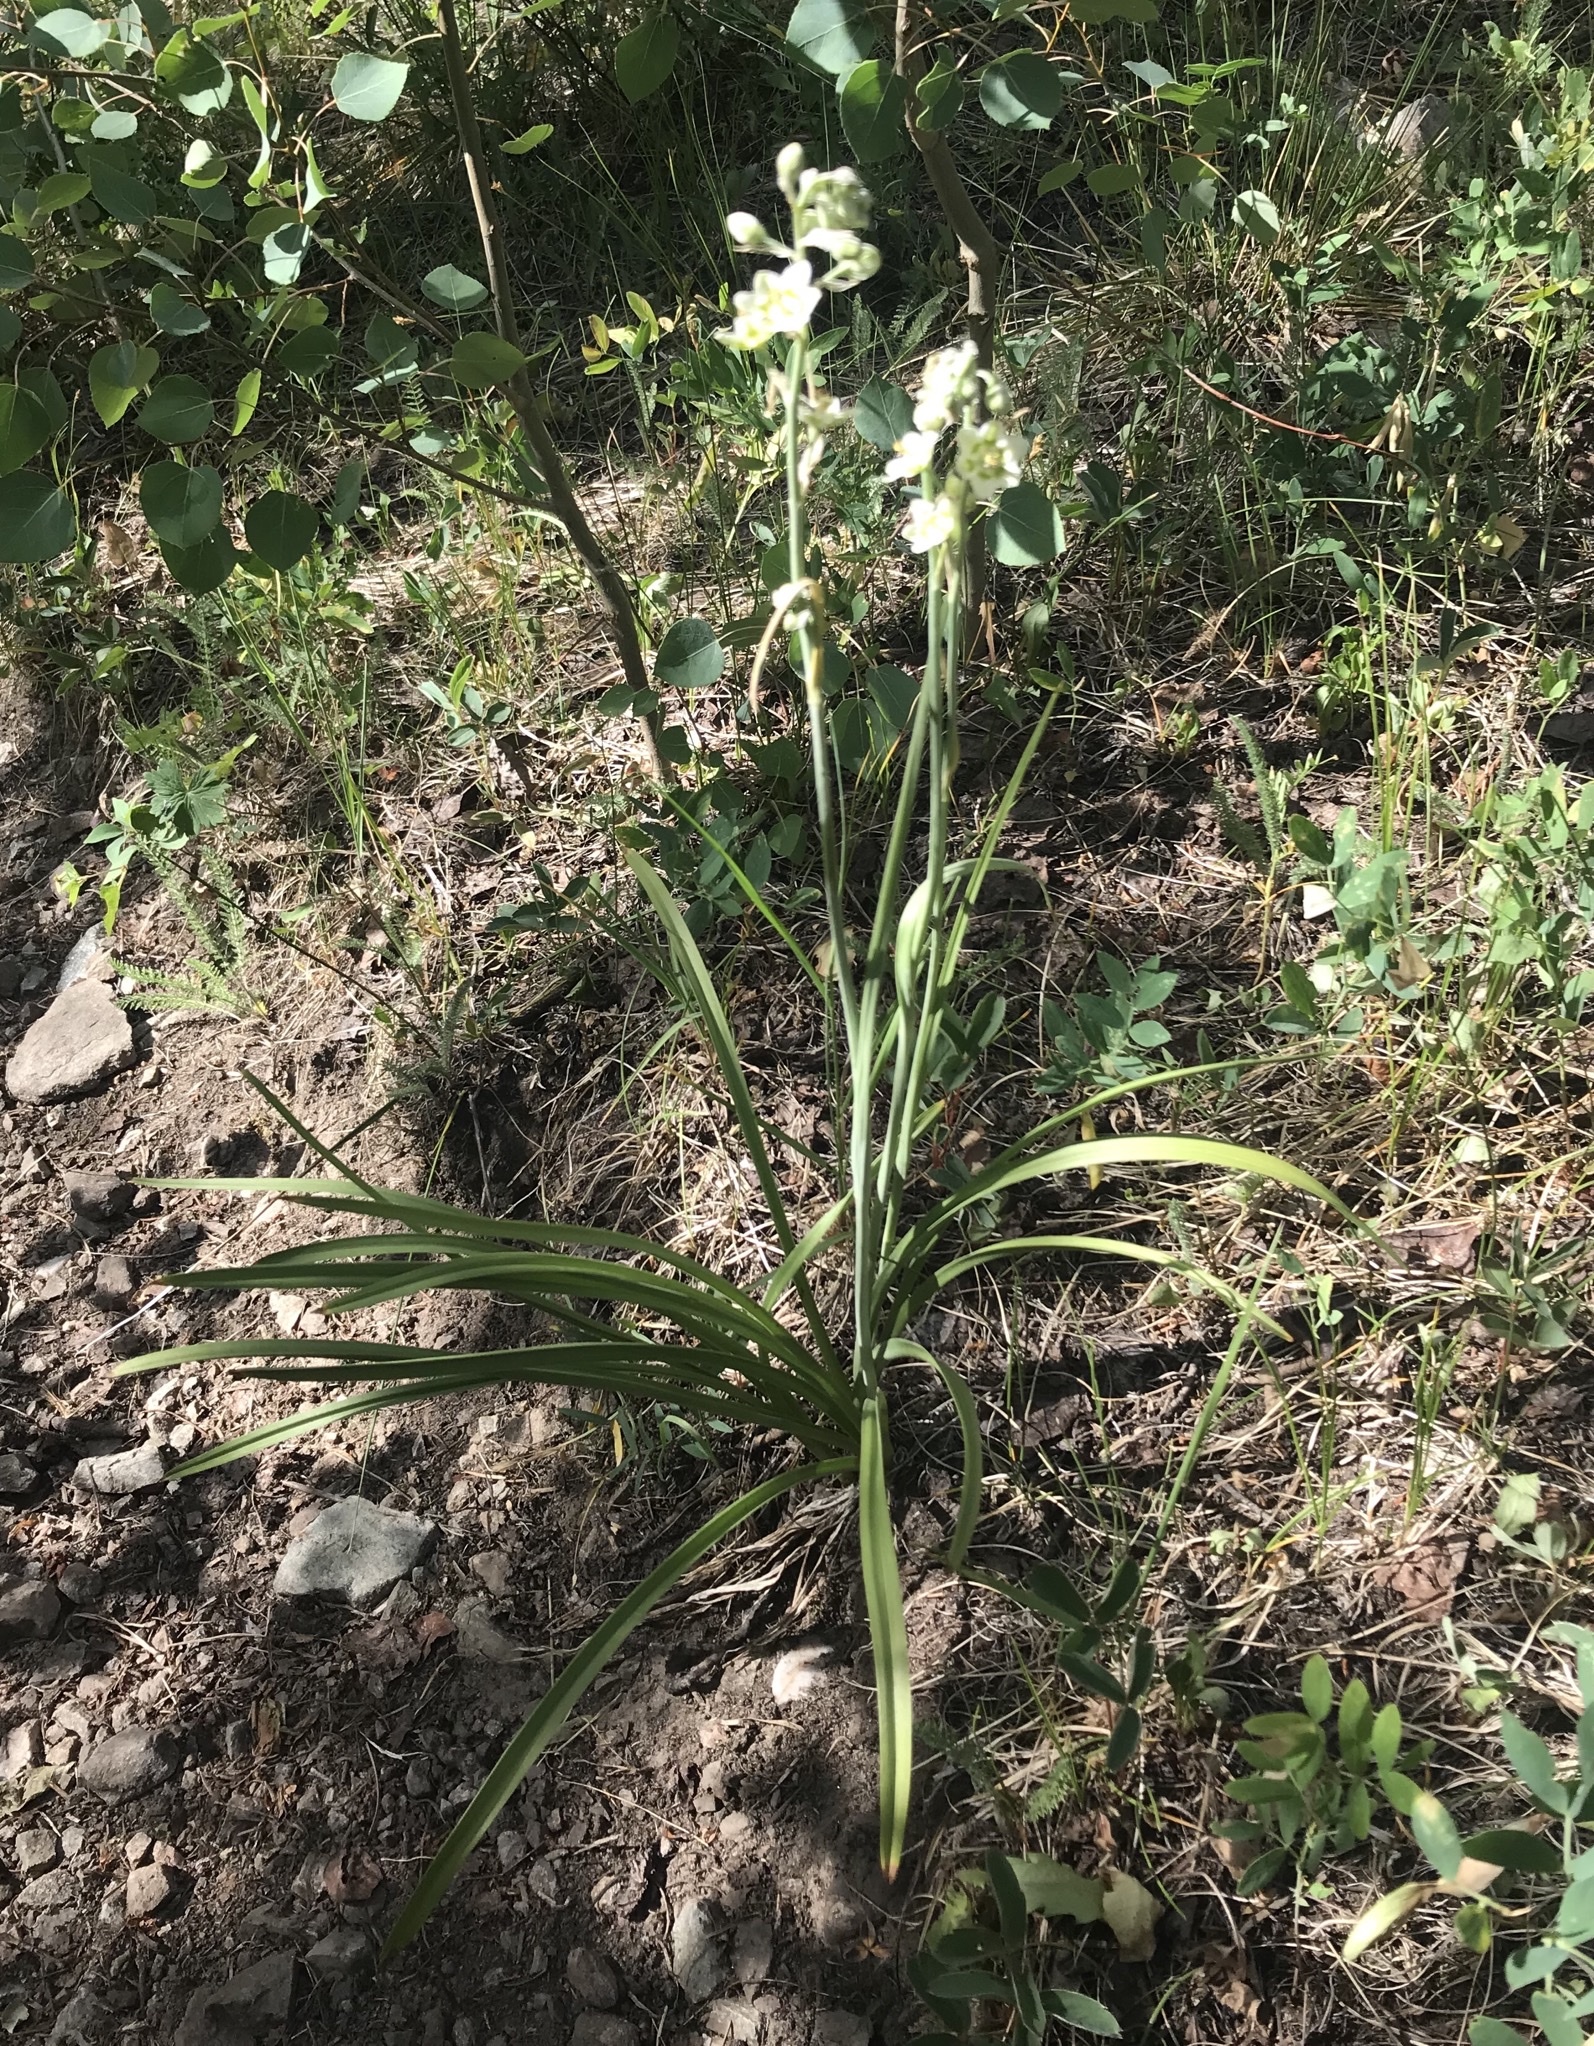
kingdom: Plantae
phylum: Tracheophyta
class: Liliopsida
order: Liliales
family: Melanthiaceae
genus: Anticlea
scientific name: Anticlea elegans
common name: Mountain death camas
